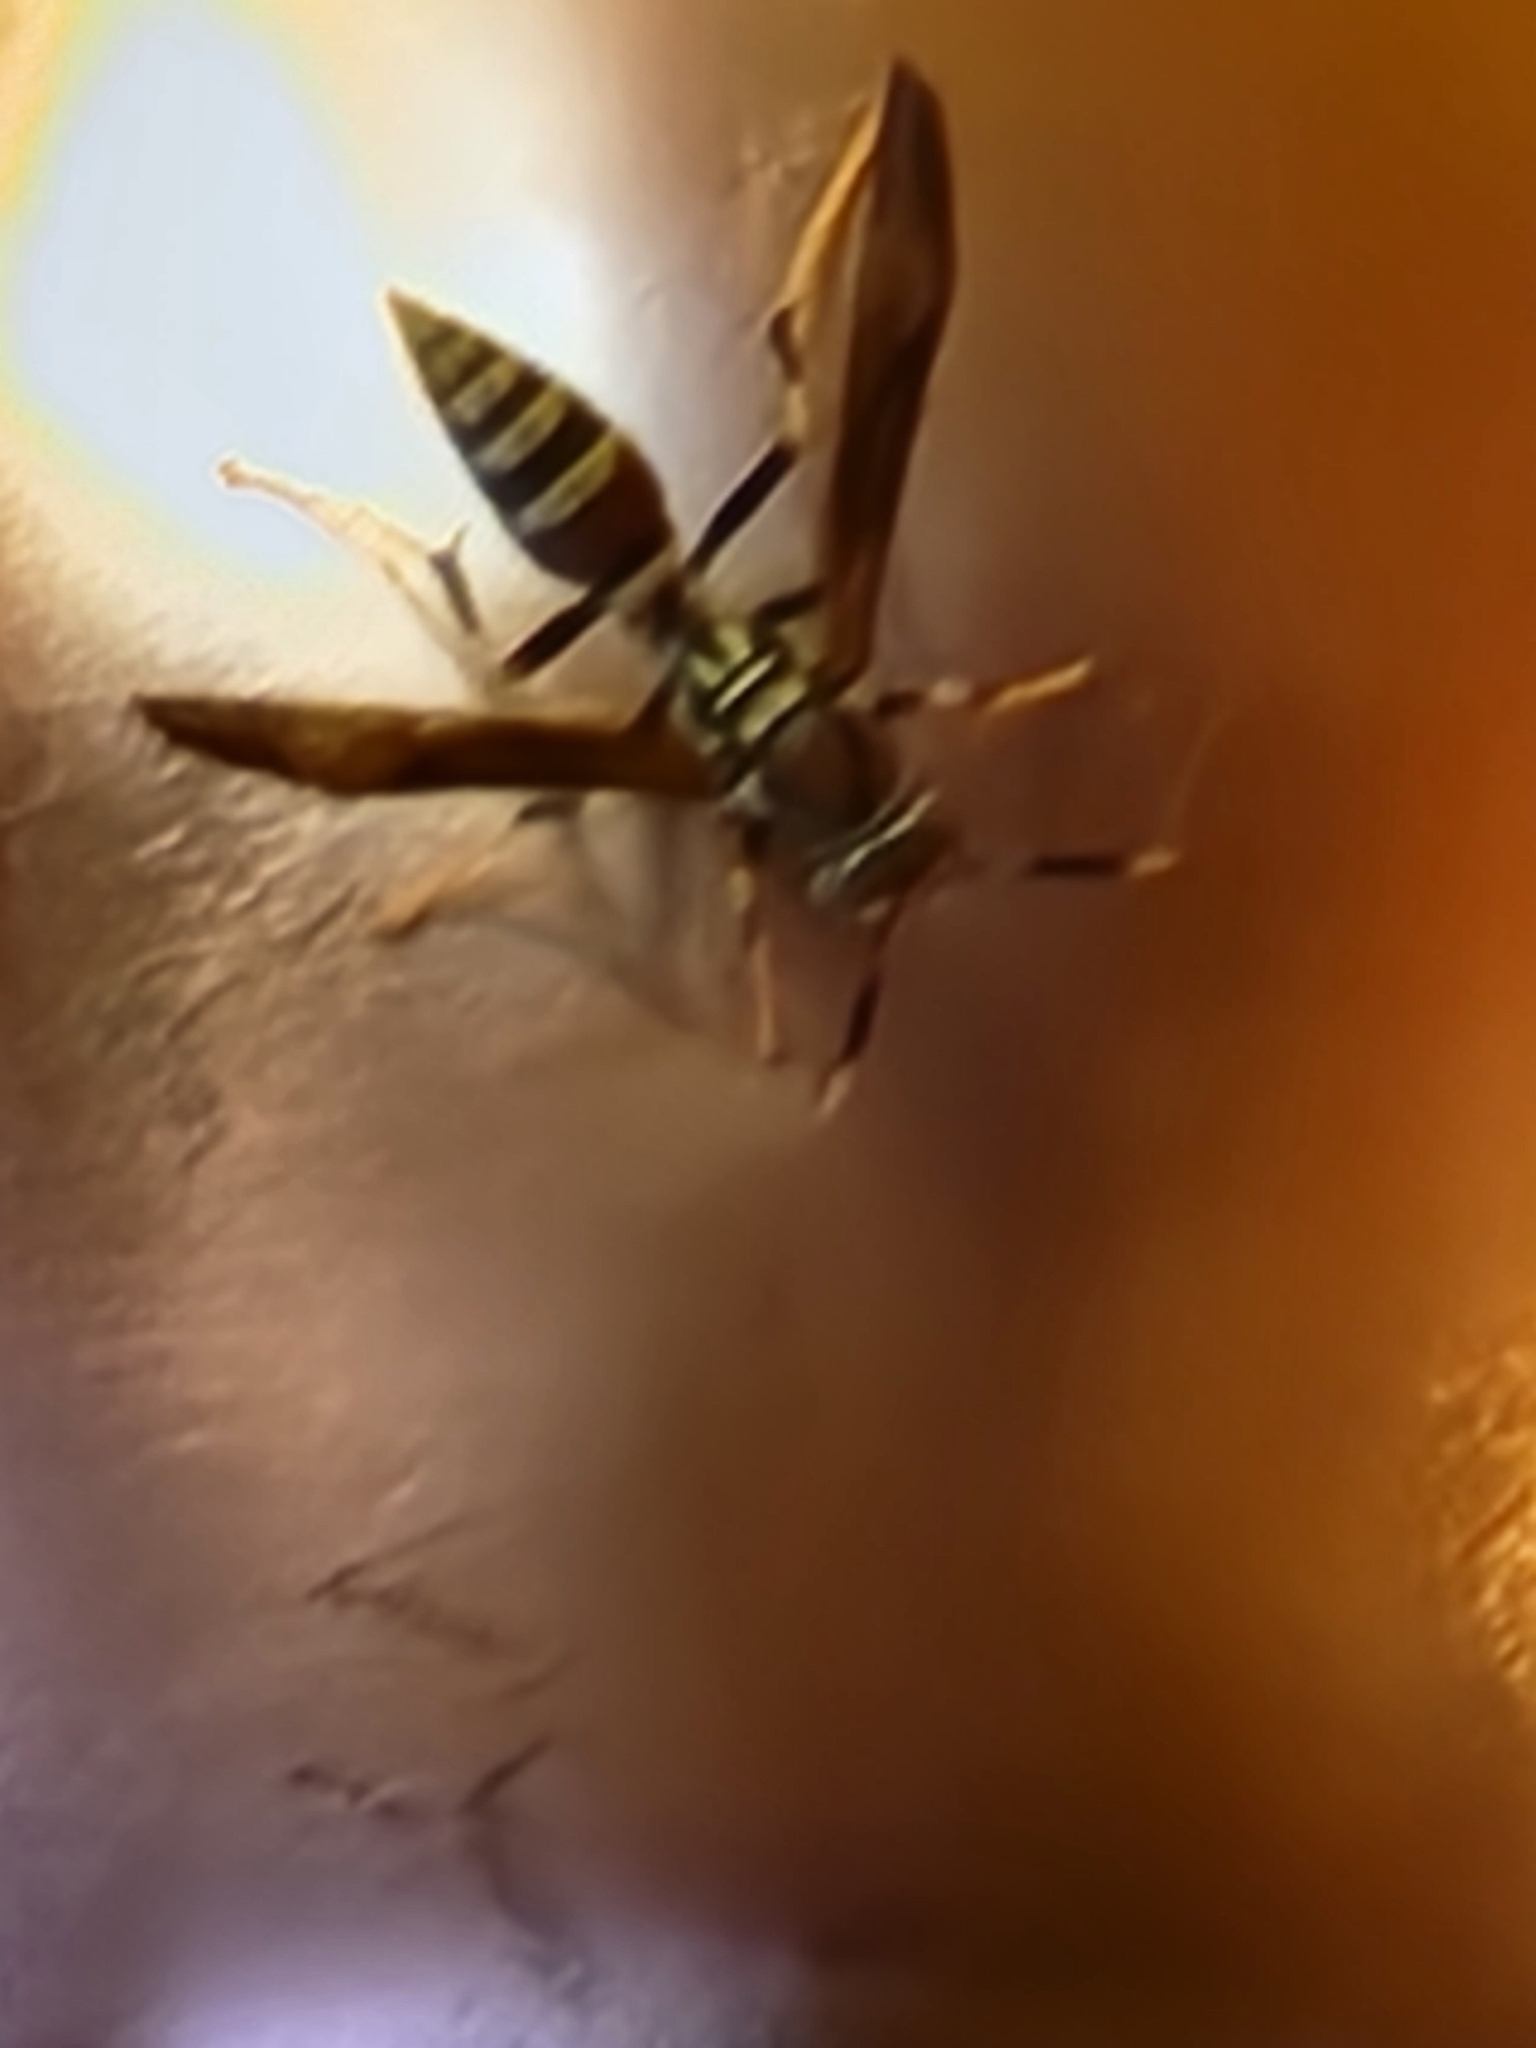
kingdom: Animalia
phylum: Arthropoda
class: Insecta
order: Hymenoptera
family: Eumenidae
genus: Polistes
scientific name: Polistes exclamans
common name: Paper wasp
